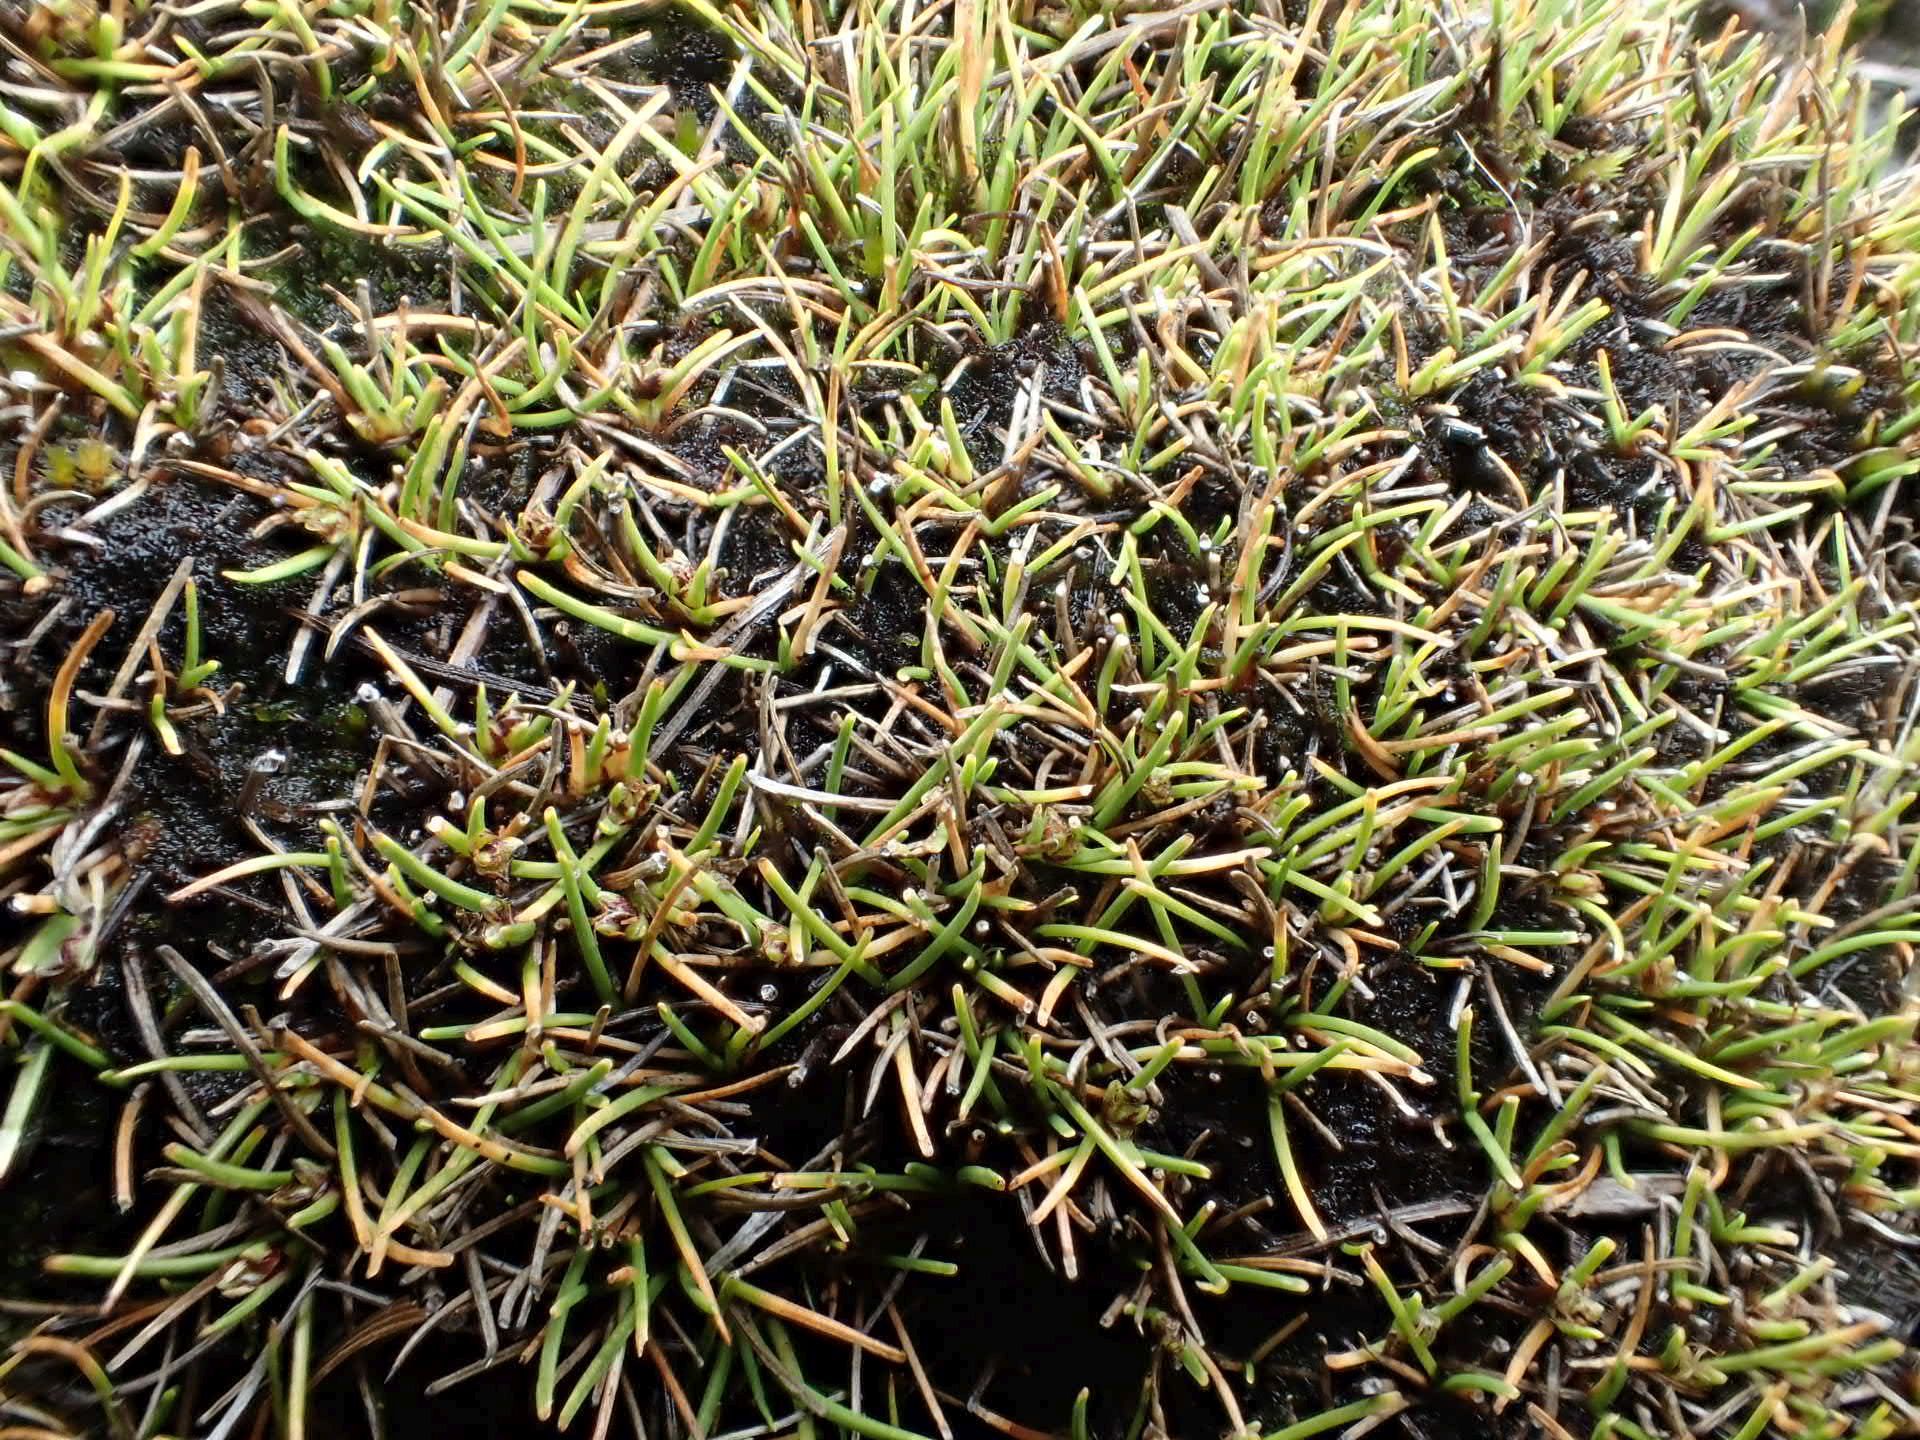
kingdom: Plantae
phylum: Tracheophyta
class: Liliopsida
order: Poales
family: Cyperaceae
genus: Isolepis
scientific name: Isolepis basilaris
